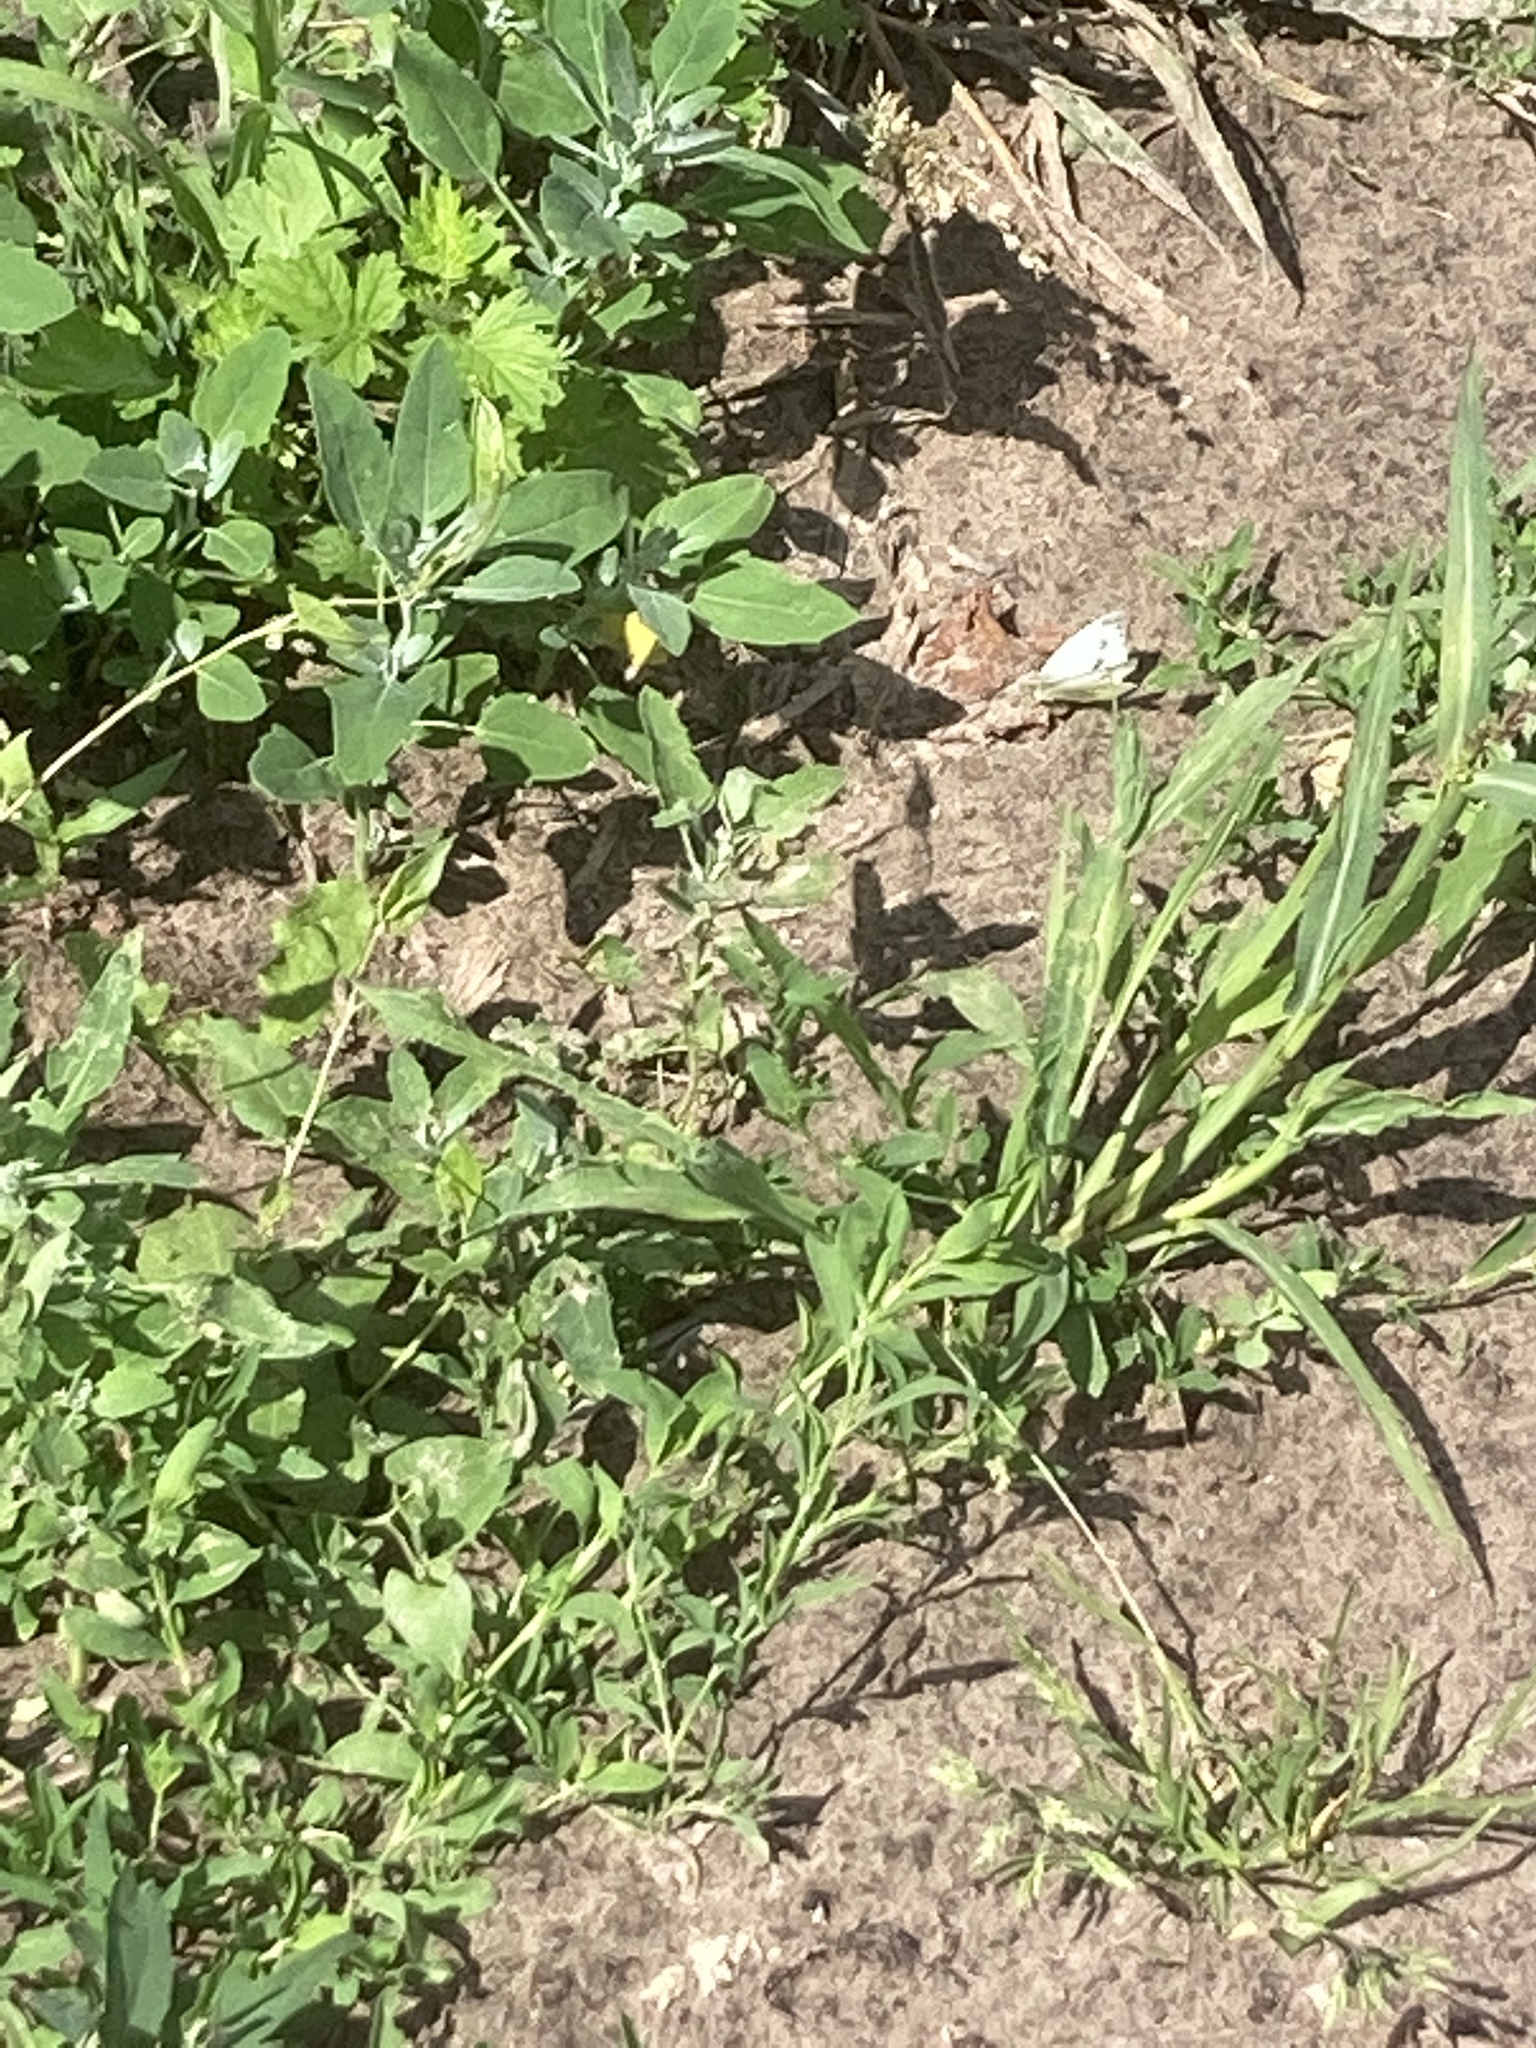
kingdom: Animalia
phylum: Arthropoda
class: Insecta
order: Lepidoptera
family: Pieridae
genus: Pieris
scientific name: Pieris napi
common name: Green-veined white
